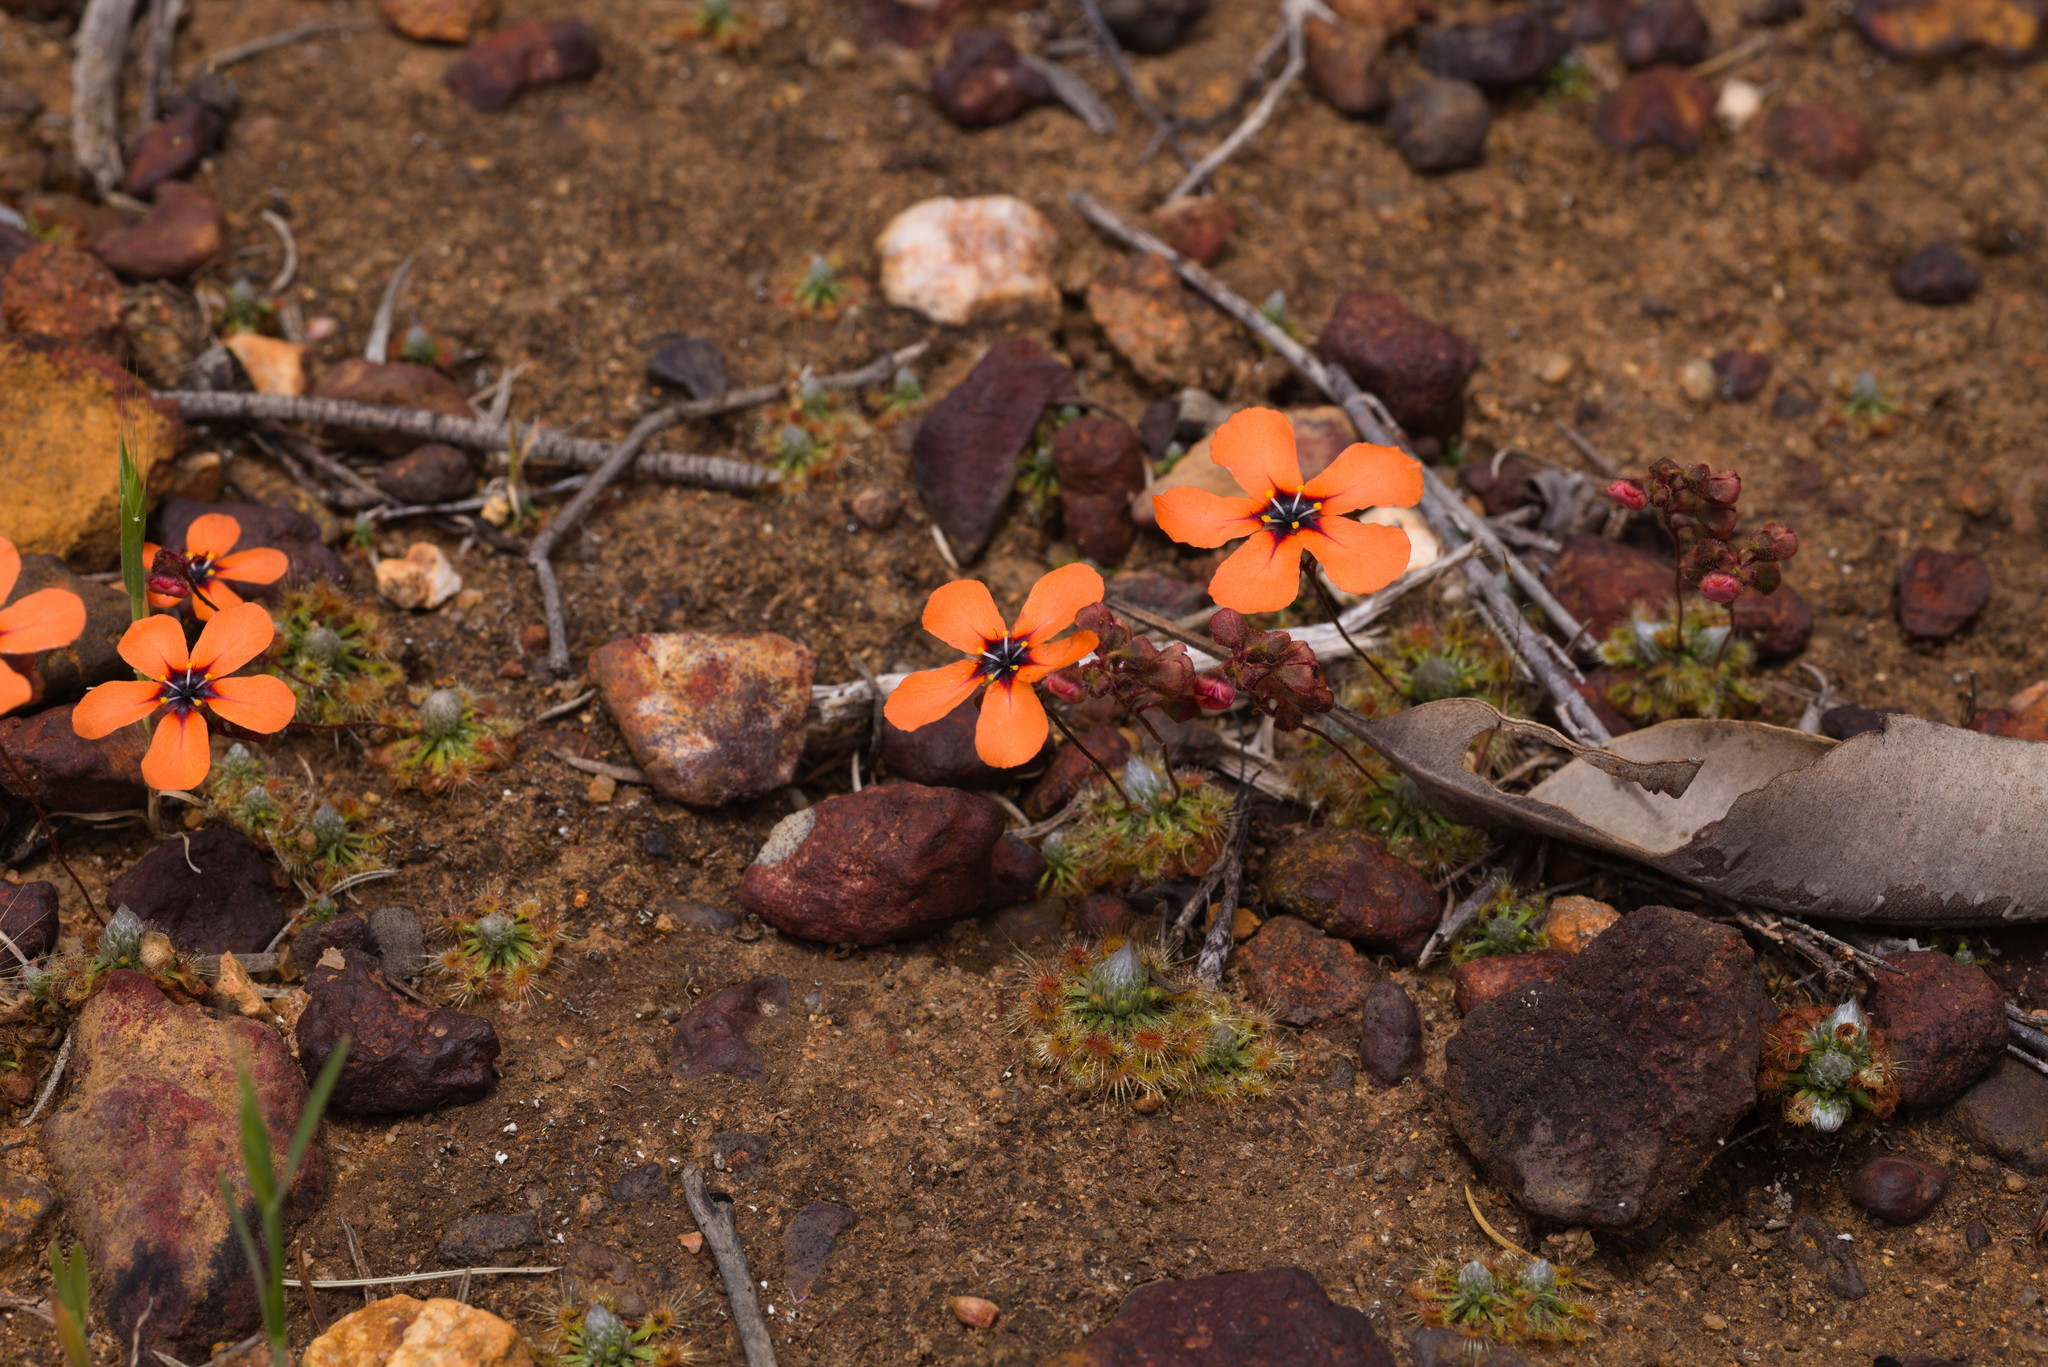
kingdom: Plantae
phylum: Tracheophyta
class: Magnoliopsida
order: Caryophyllales
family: Droseraceae
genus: Drosera
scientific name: Drosera miniata
